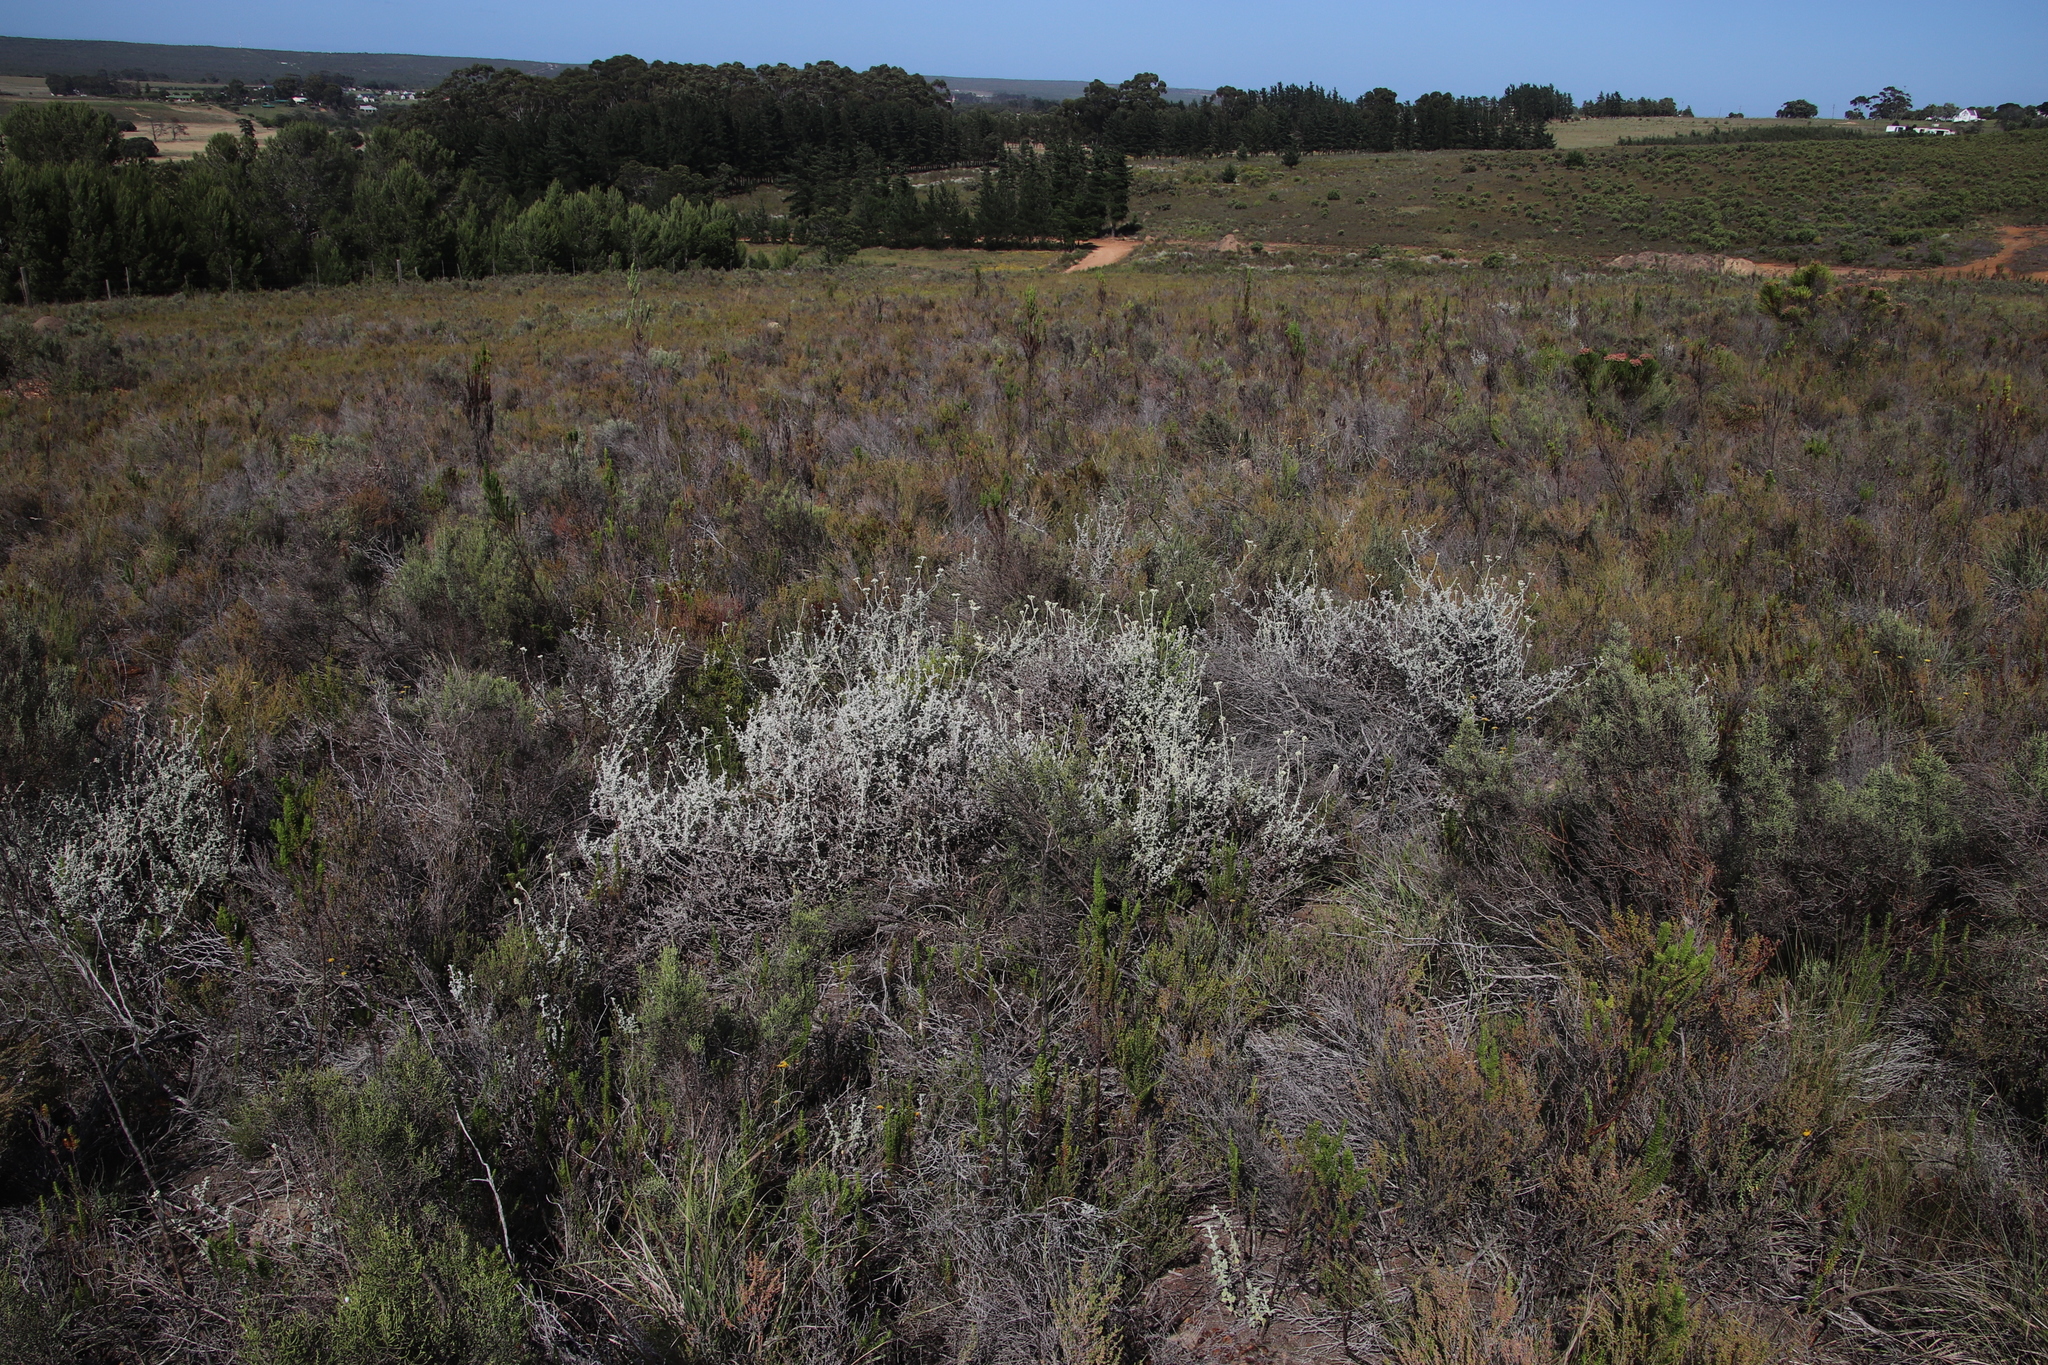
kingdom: Plantae
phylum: Tracheophyta
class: Magnoliopsida
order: Asterales
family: Asteraceae
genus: Helichrysum
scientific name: Helichrysum patulum
